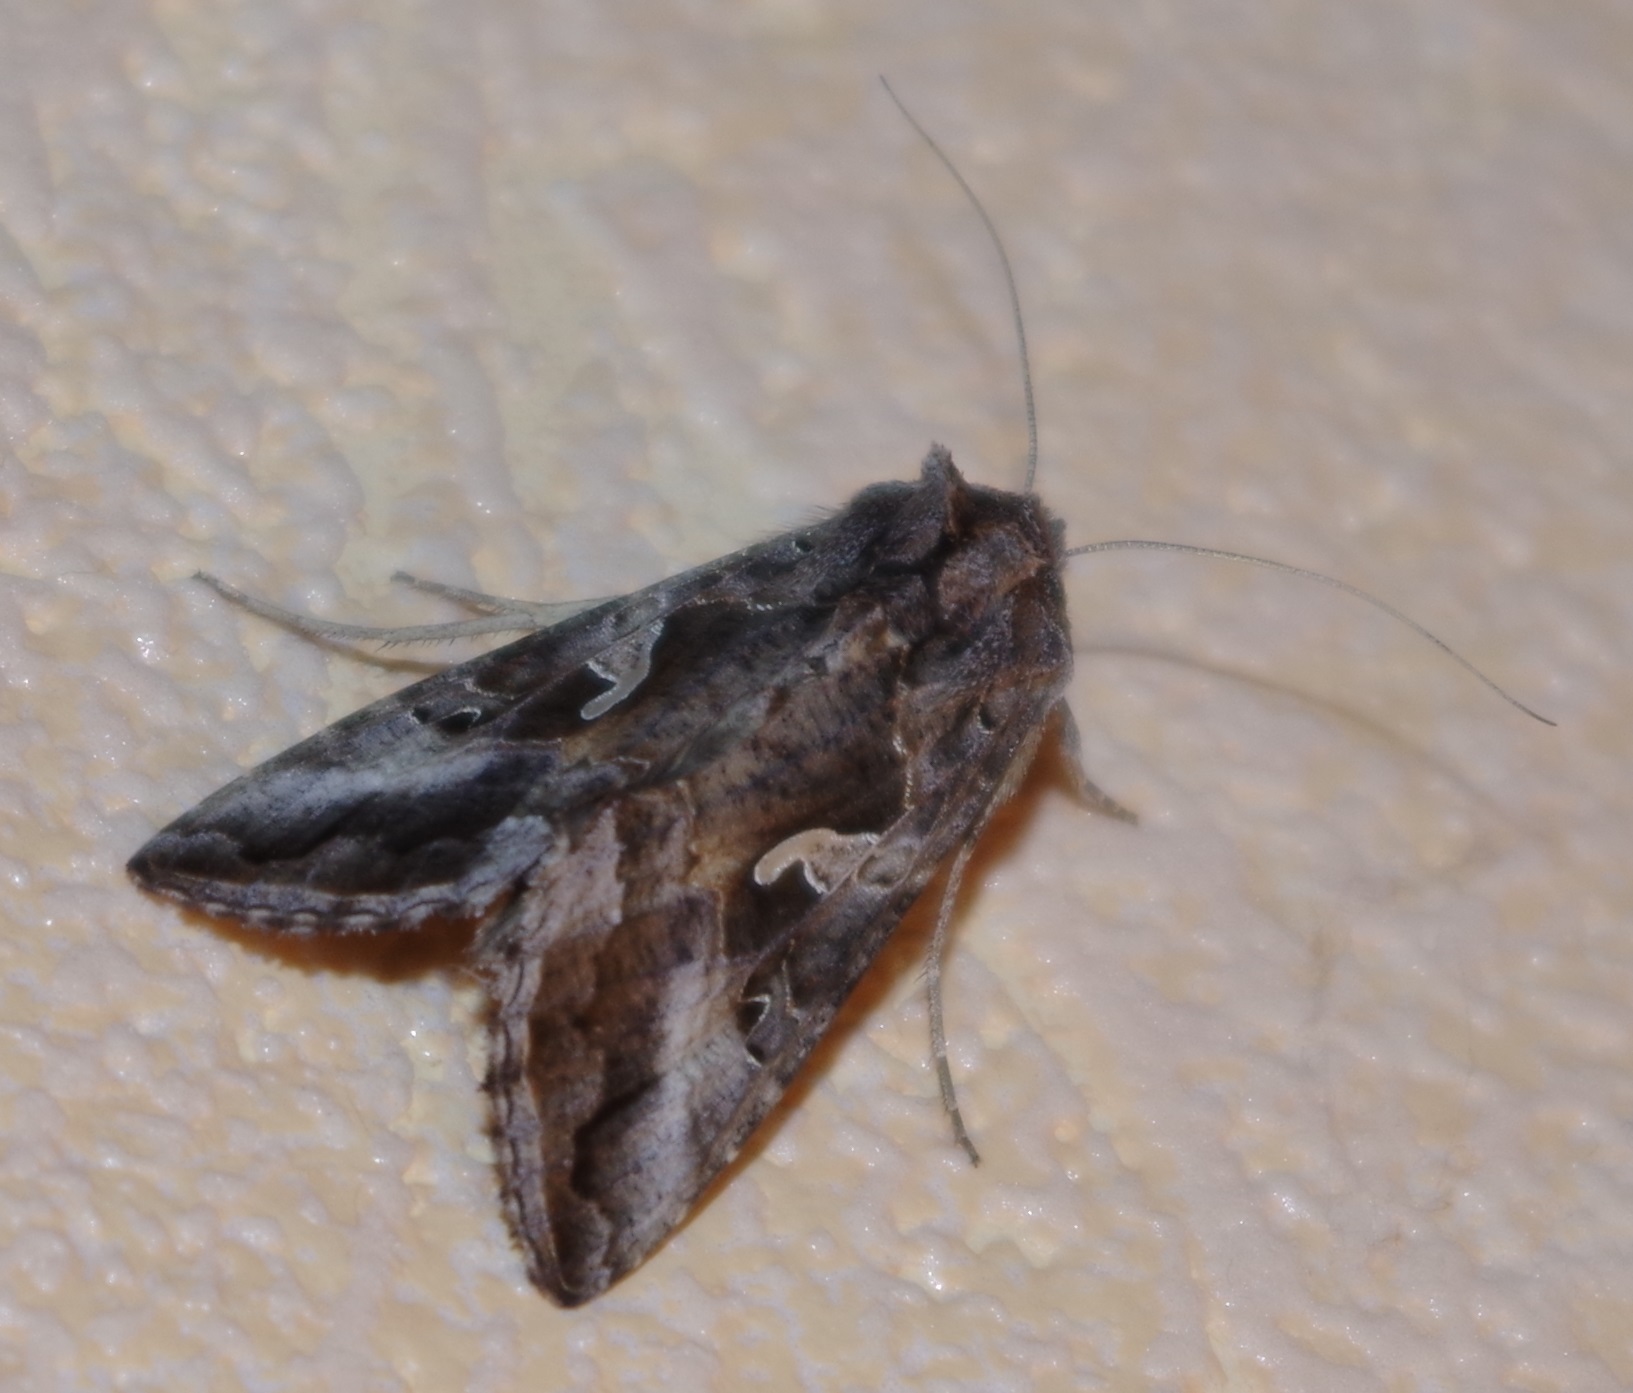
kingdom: Animalia
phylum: Arthropoda
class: Insecta
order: Lepidoptera
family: Noctuidae
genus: Autographa
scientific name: Autographa gamma
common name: Silver y
